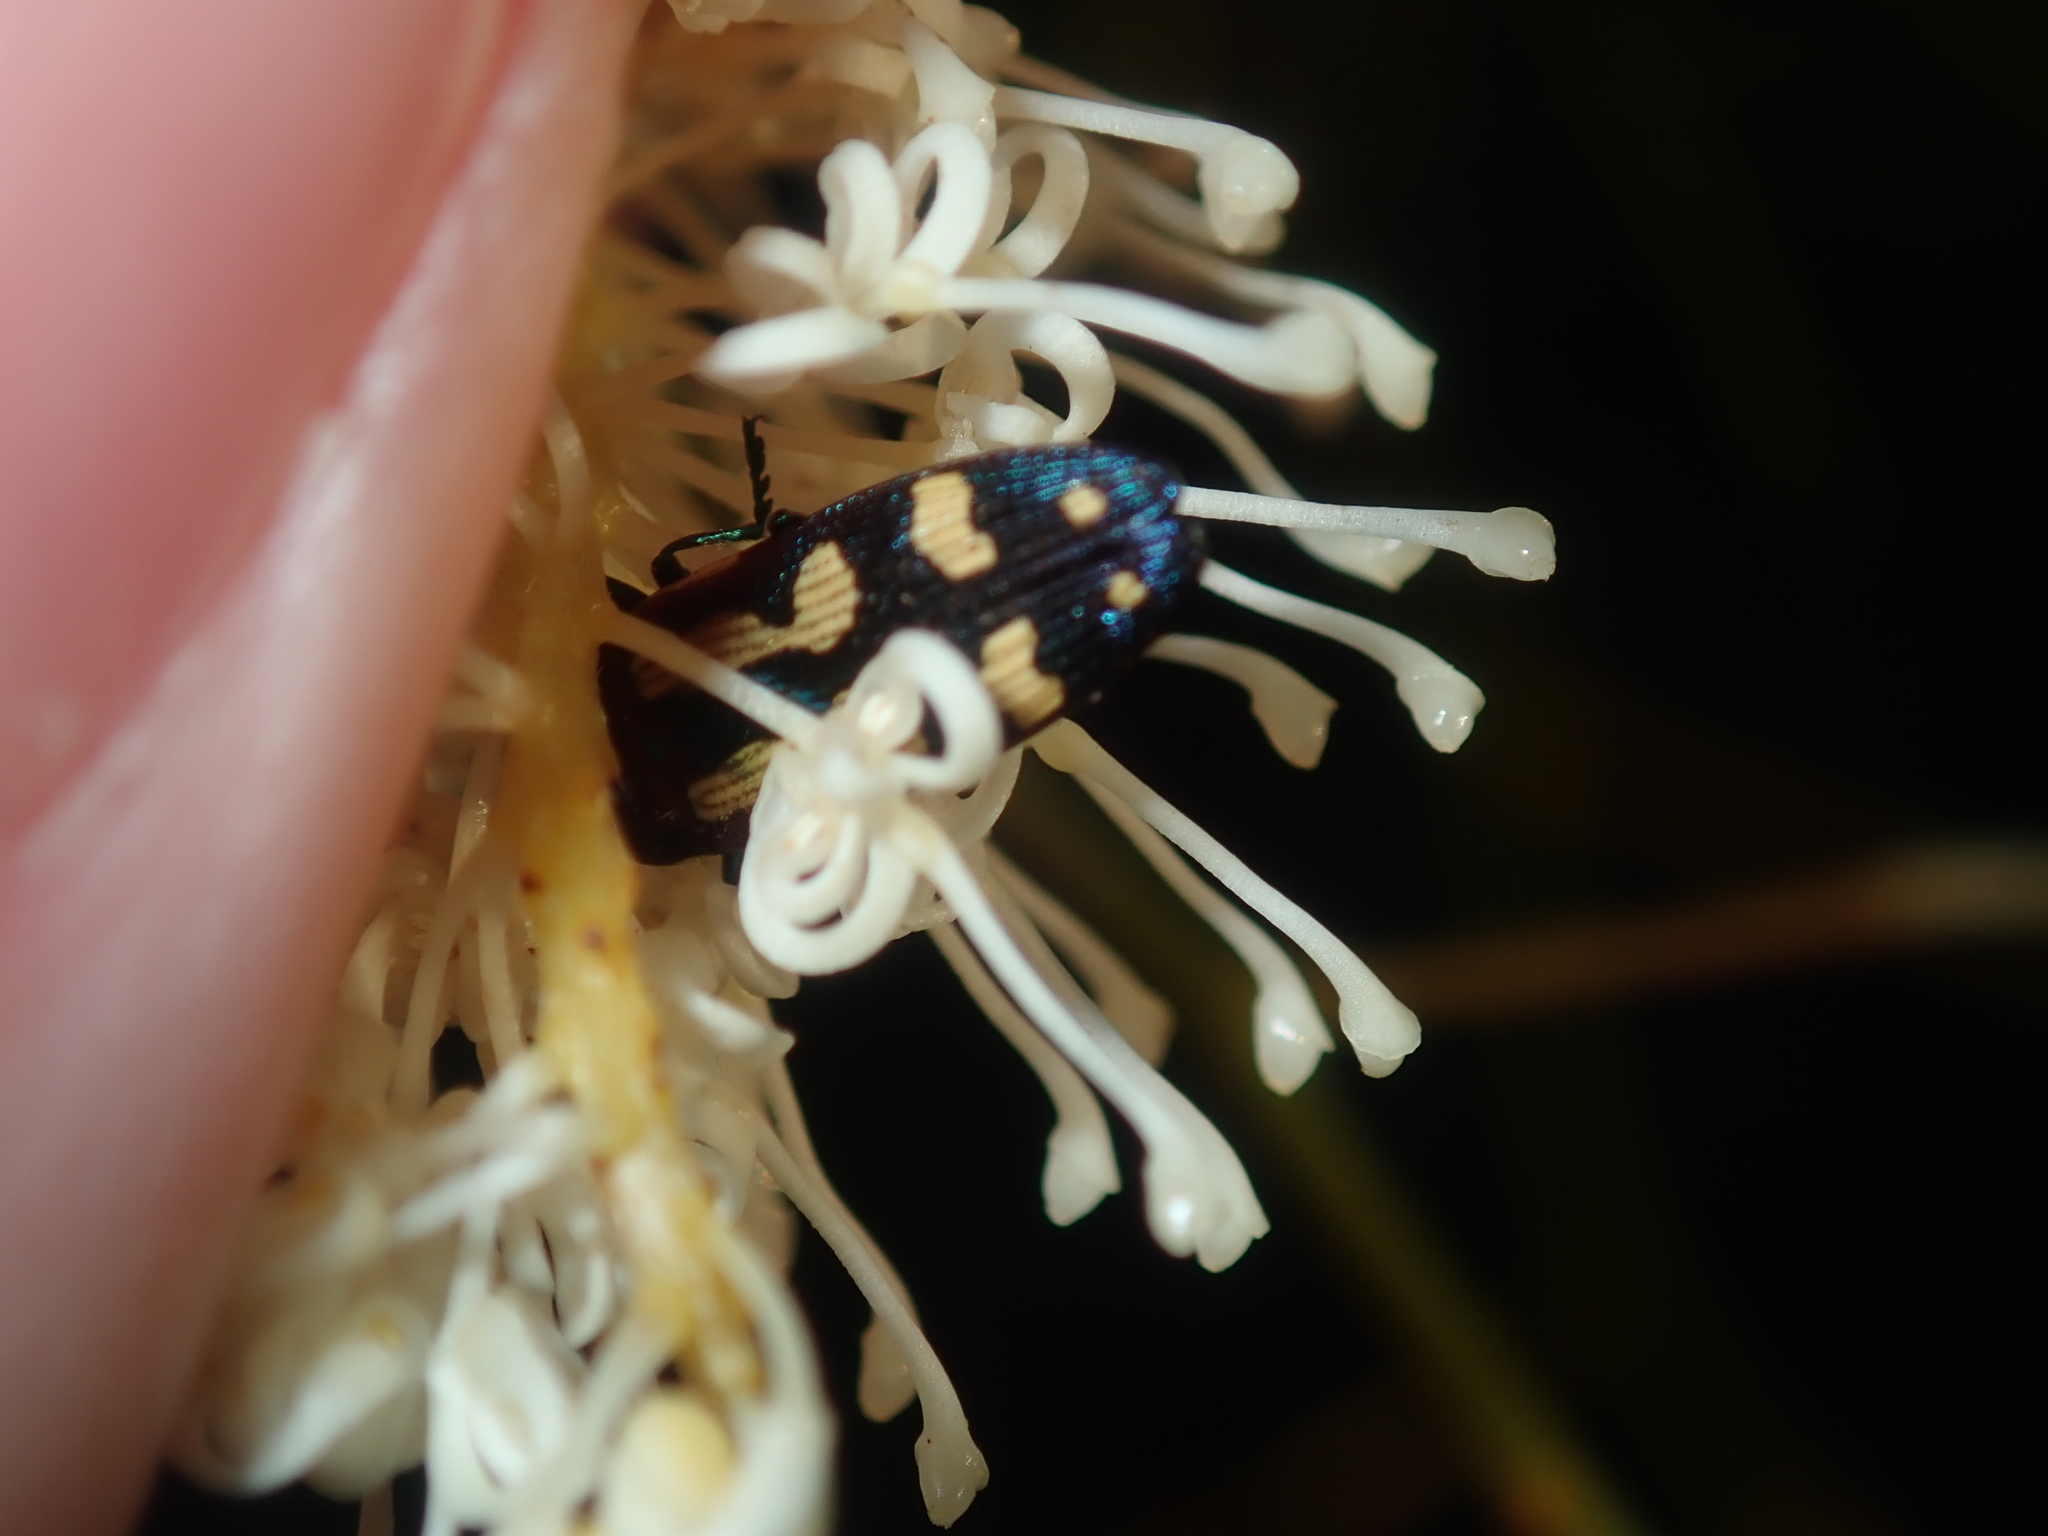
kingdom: Animalia
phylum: Arthropoda
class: Insecta
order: Coleoptera
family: Buprestidae
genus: Castiarina
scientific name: Castiarina picta
